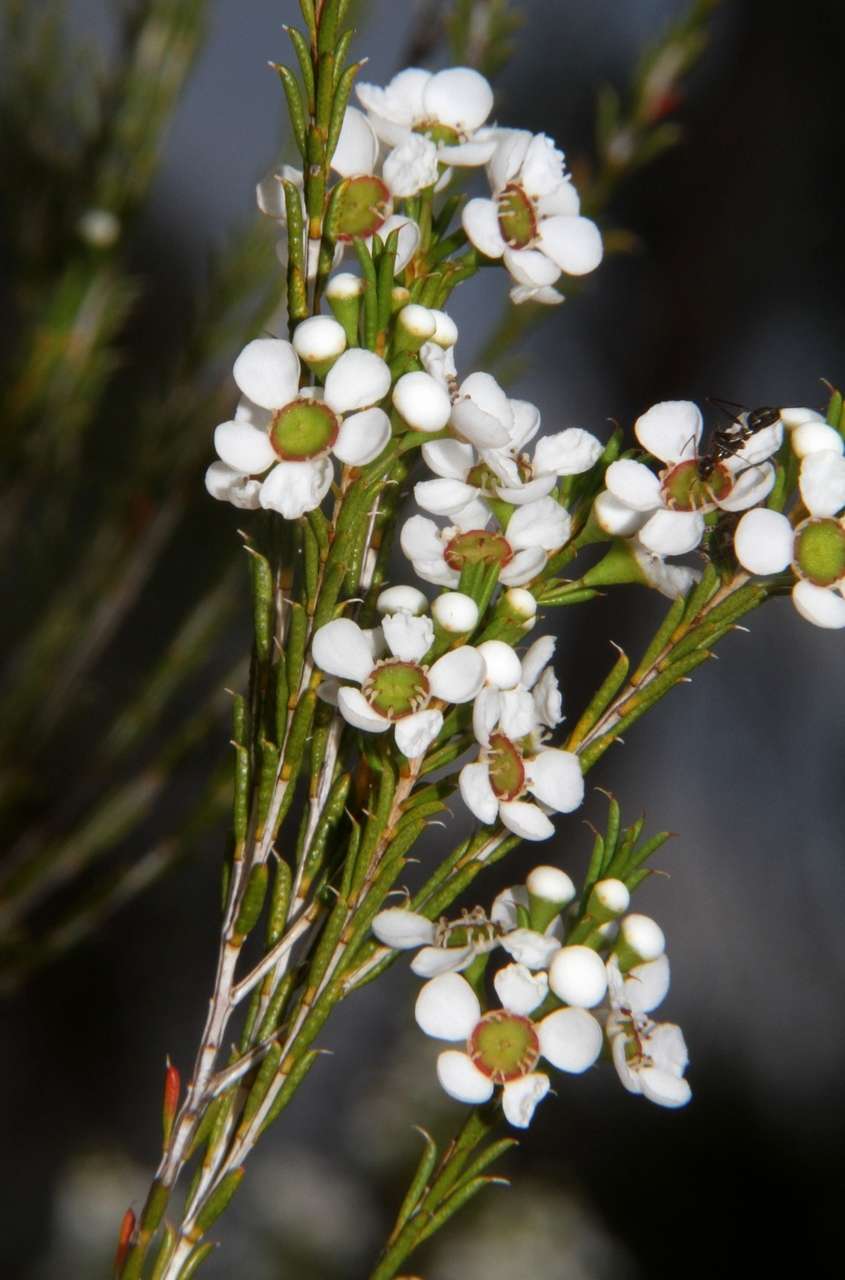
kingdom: Plantae
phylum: Tracheophyta
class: Magnoliopsida
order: Myrtales
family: Myrtaceae
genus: Hysterobaeckea
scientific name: Hysterobaeckea behrii
